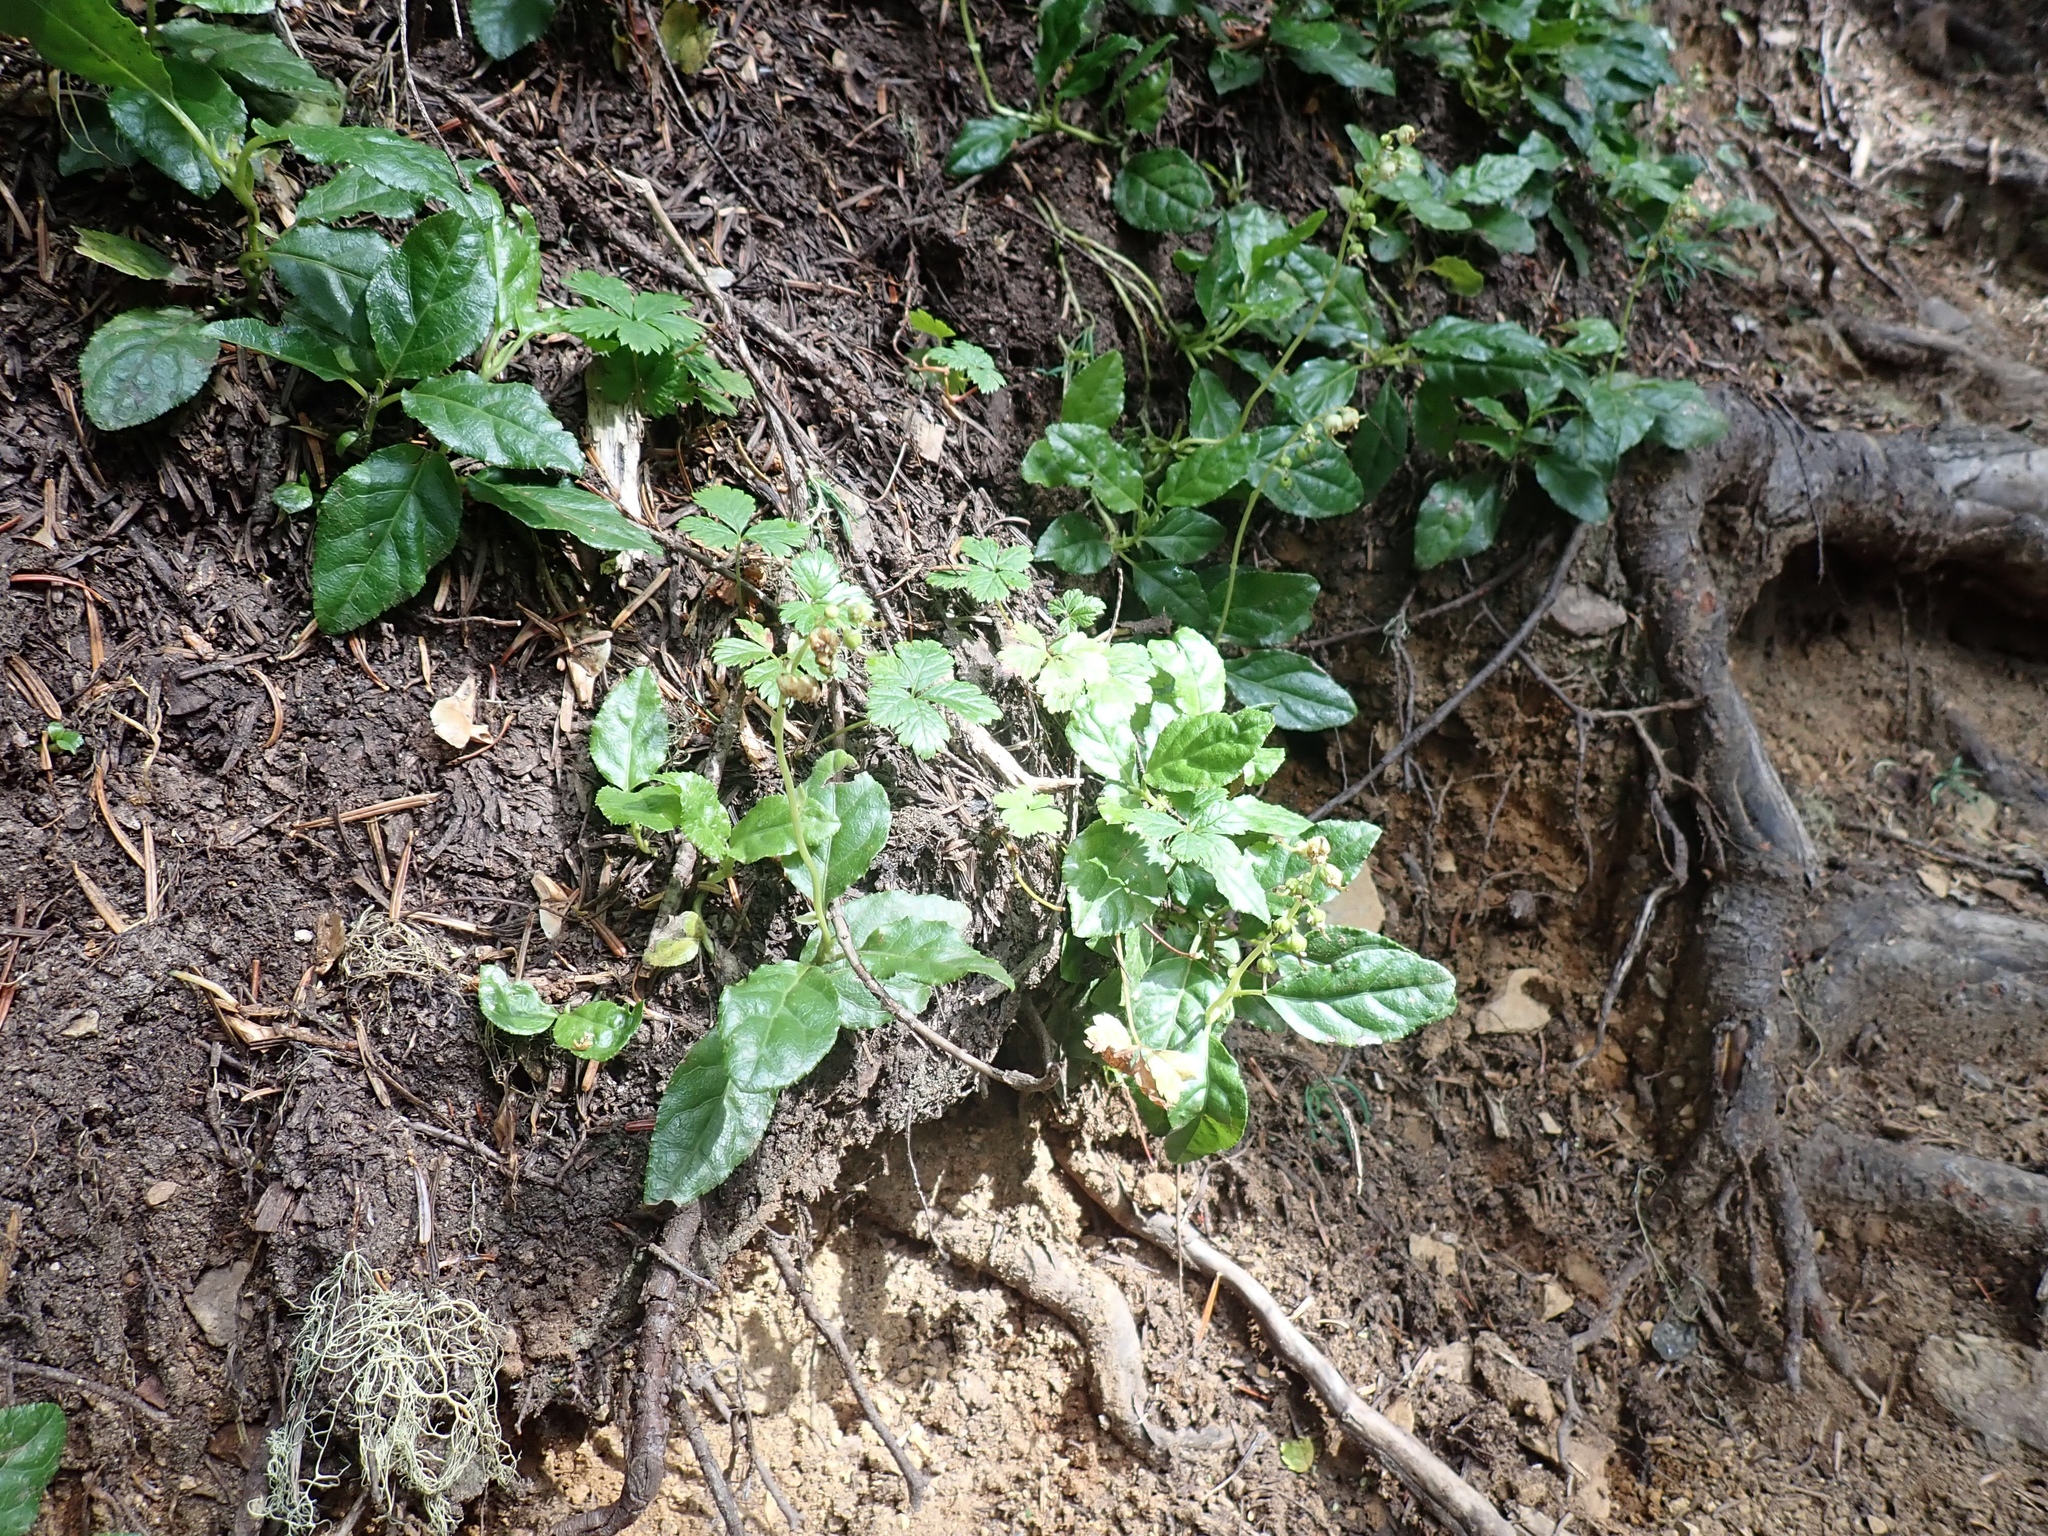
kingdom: Plantae
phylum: Tracheophyta
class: Magnoliopsida
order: Ericales
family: Ericaceae
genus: Orthilia
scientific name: Orthilia secunda
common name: One-sided orthilia
